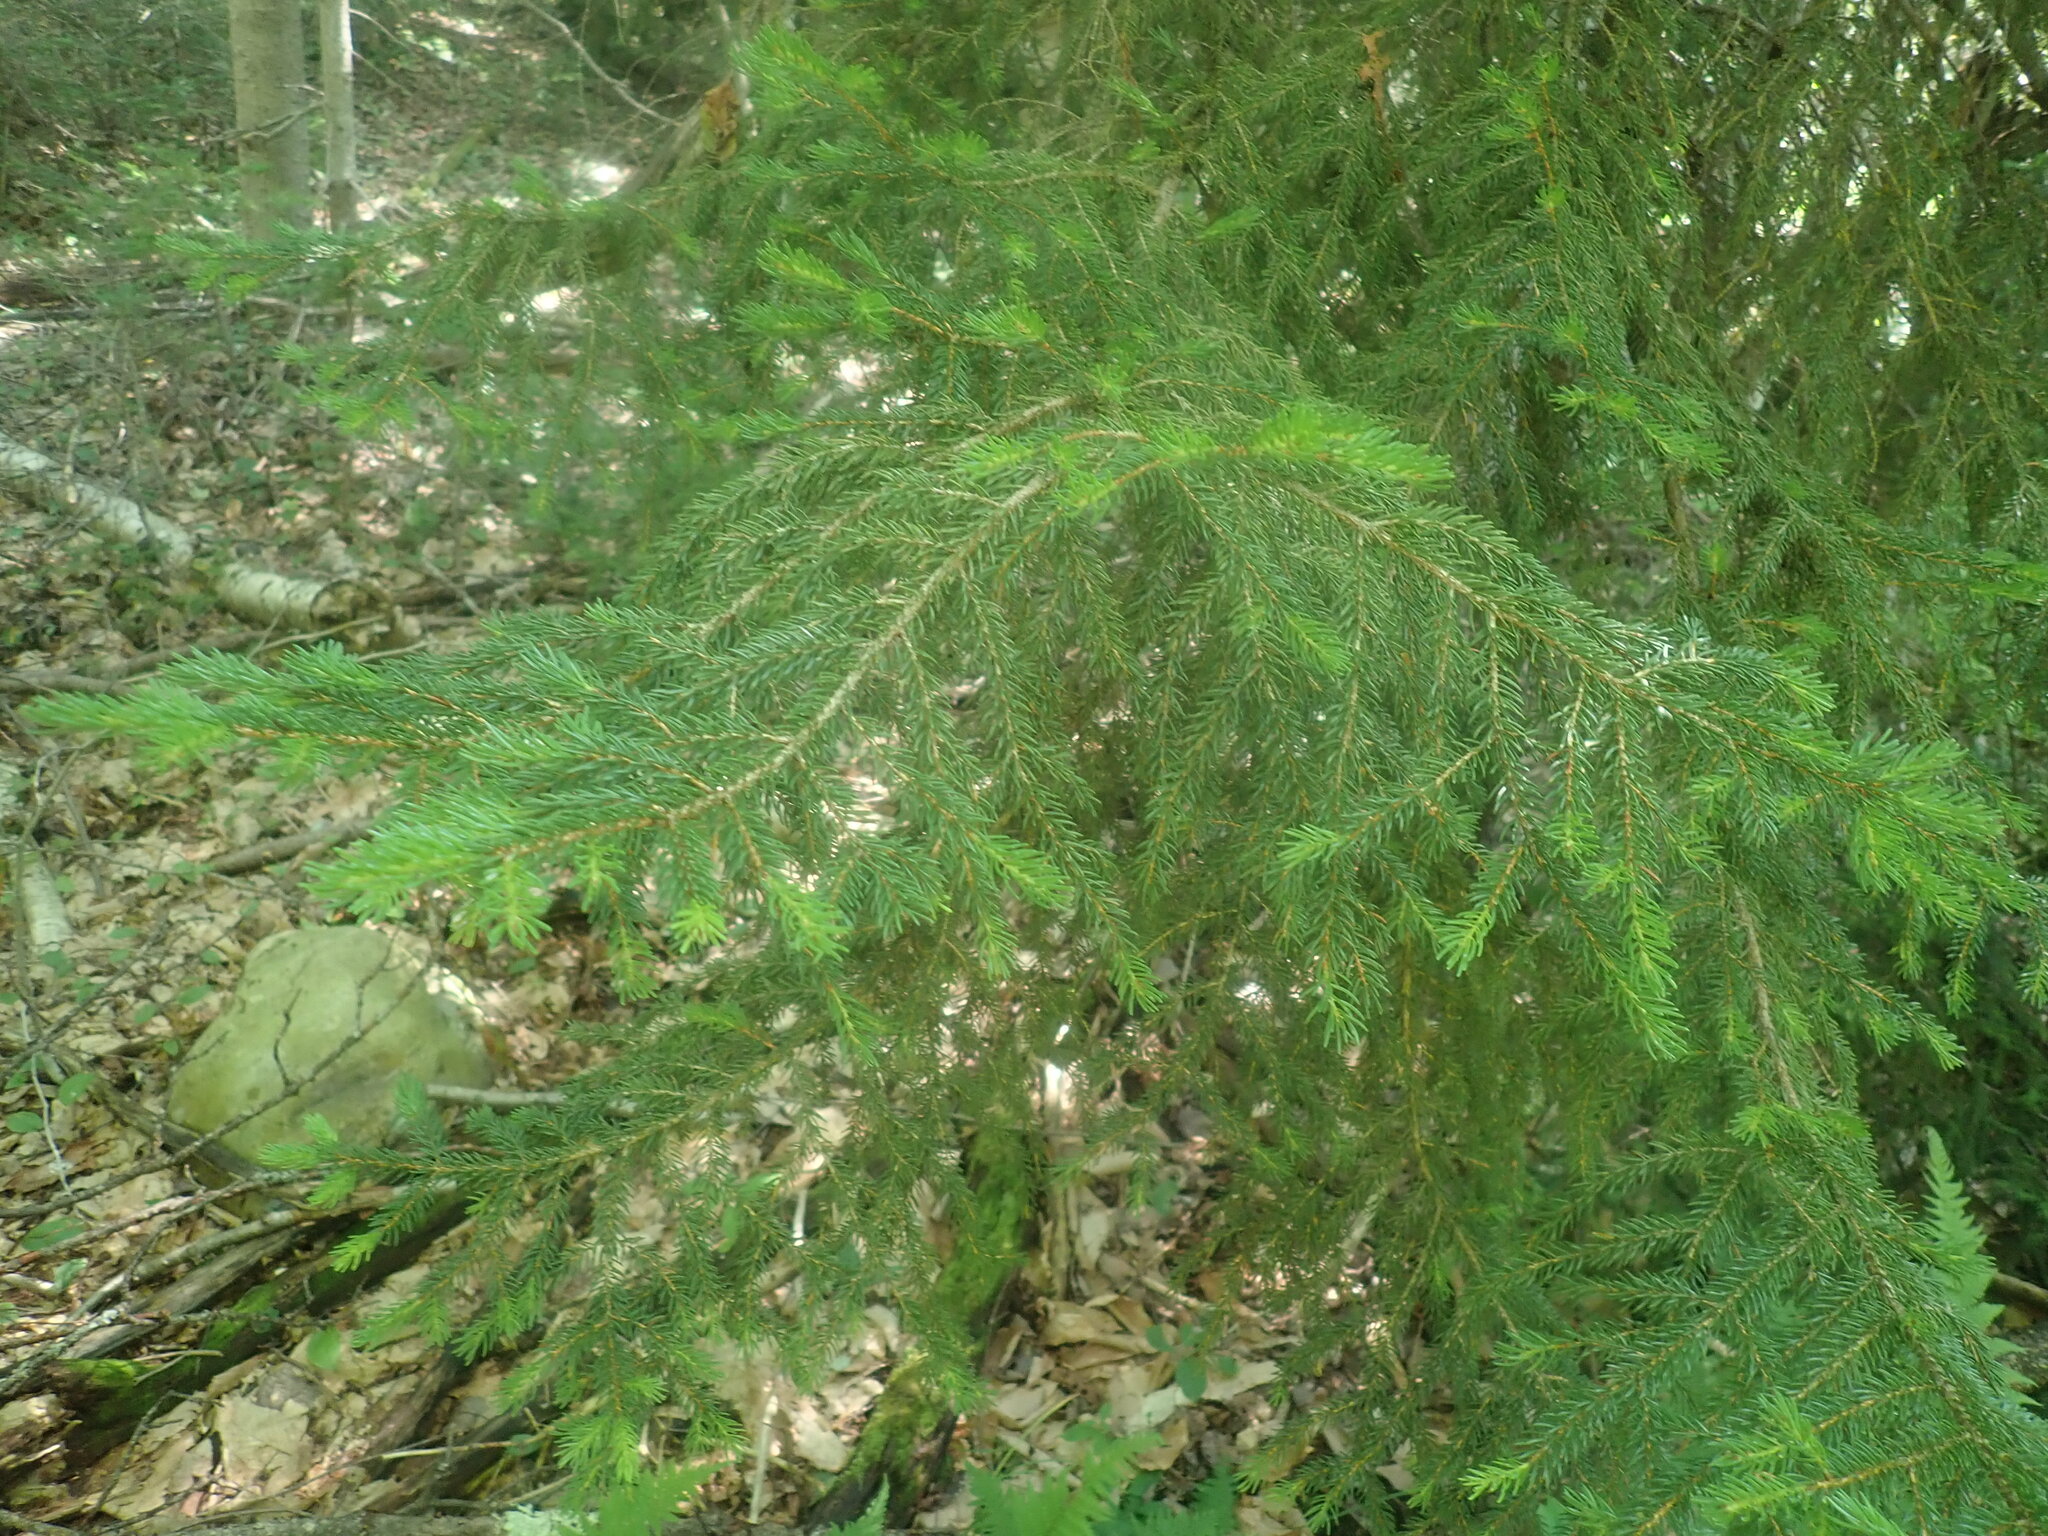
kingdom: Plantae
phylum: Tracheophyta
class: Pinopsida
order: Pinales
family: Pinaceae
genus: Picea
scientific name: Picea rubens
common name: Red spruce
